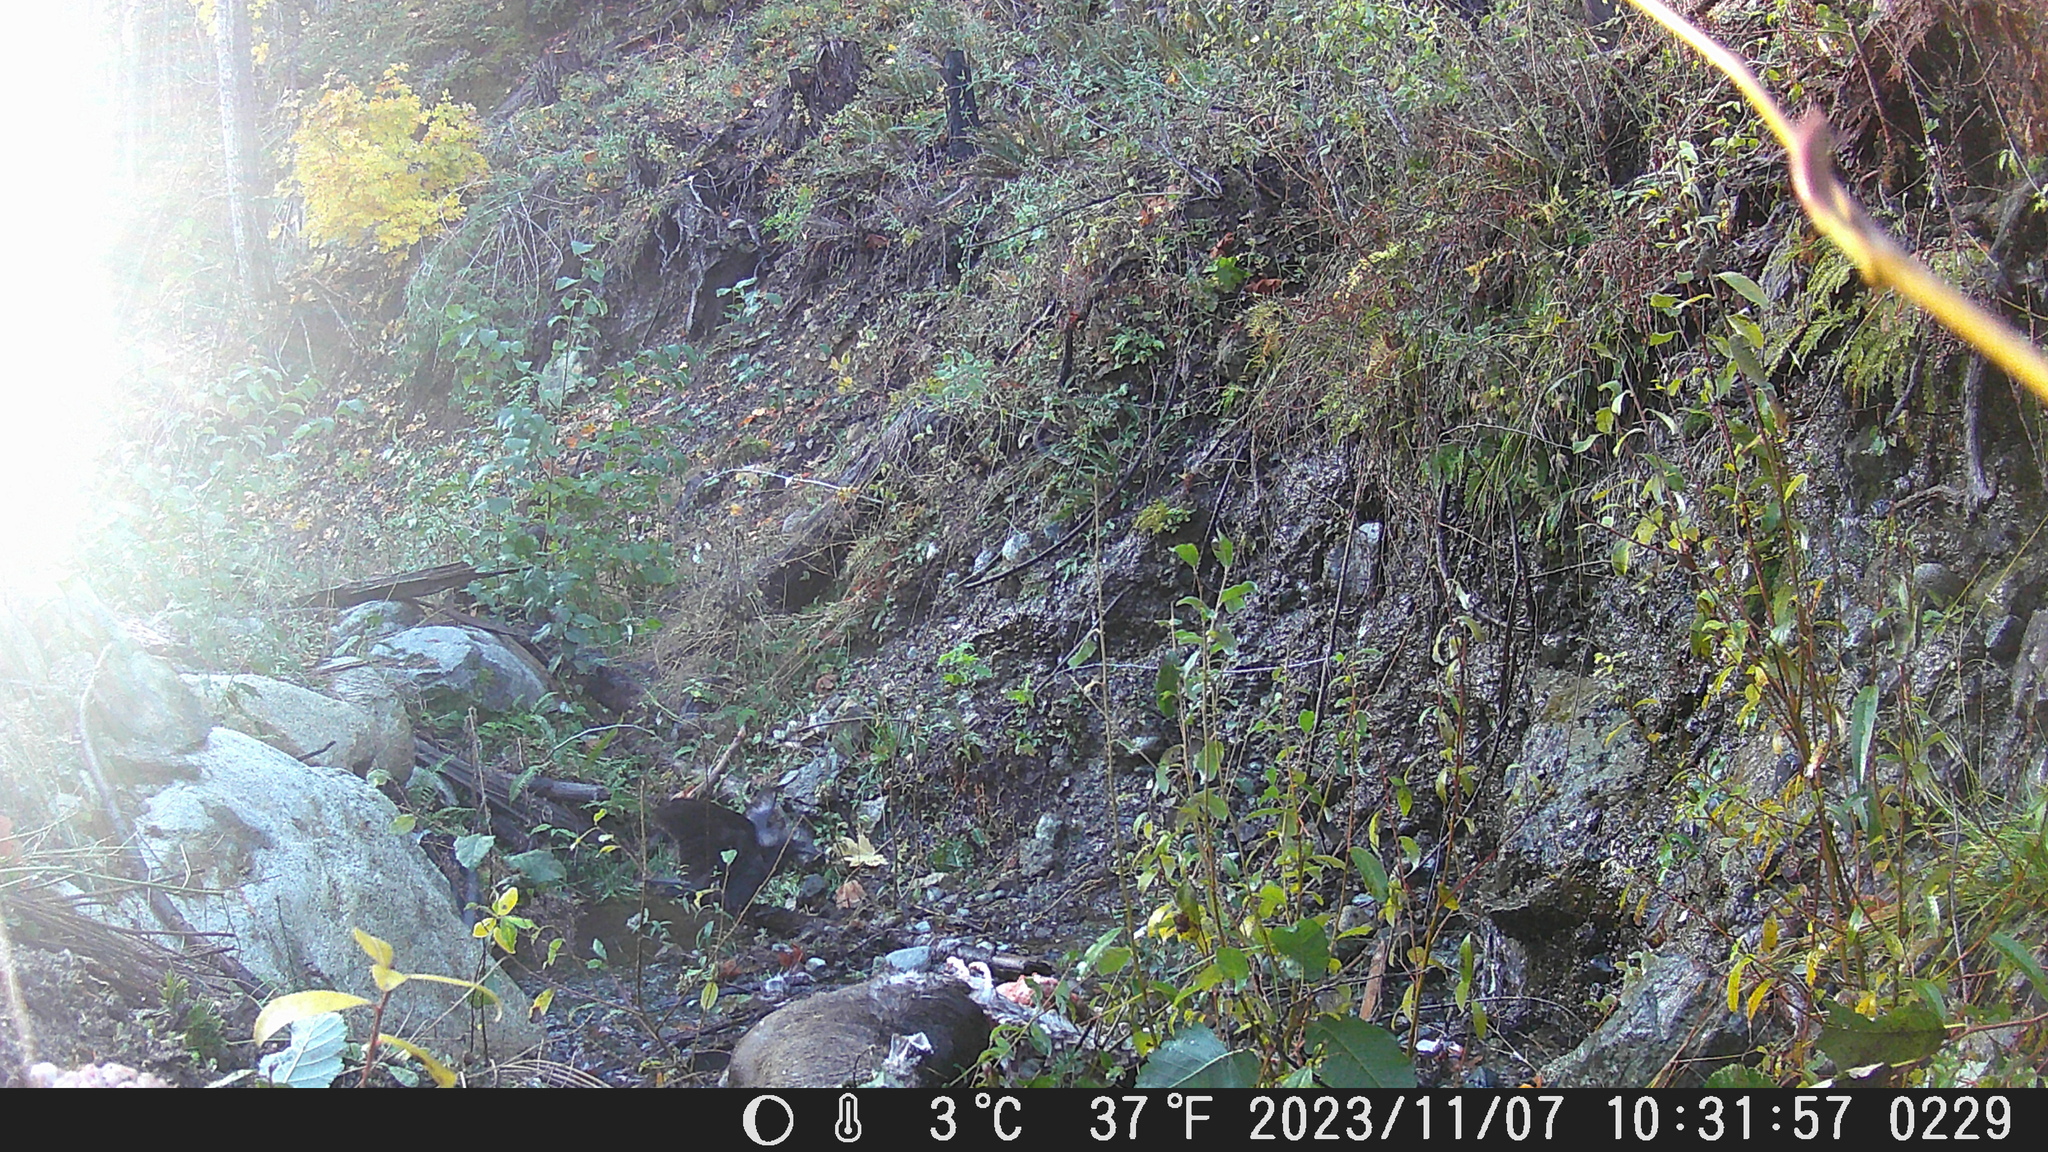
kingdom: Animalia
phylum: Chordata
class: Aves
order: Passeriformes
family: Corvidae
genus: Corvus
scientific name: Corvus corax
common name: Common raven
